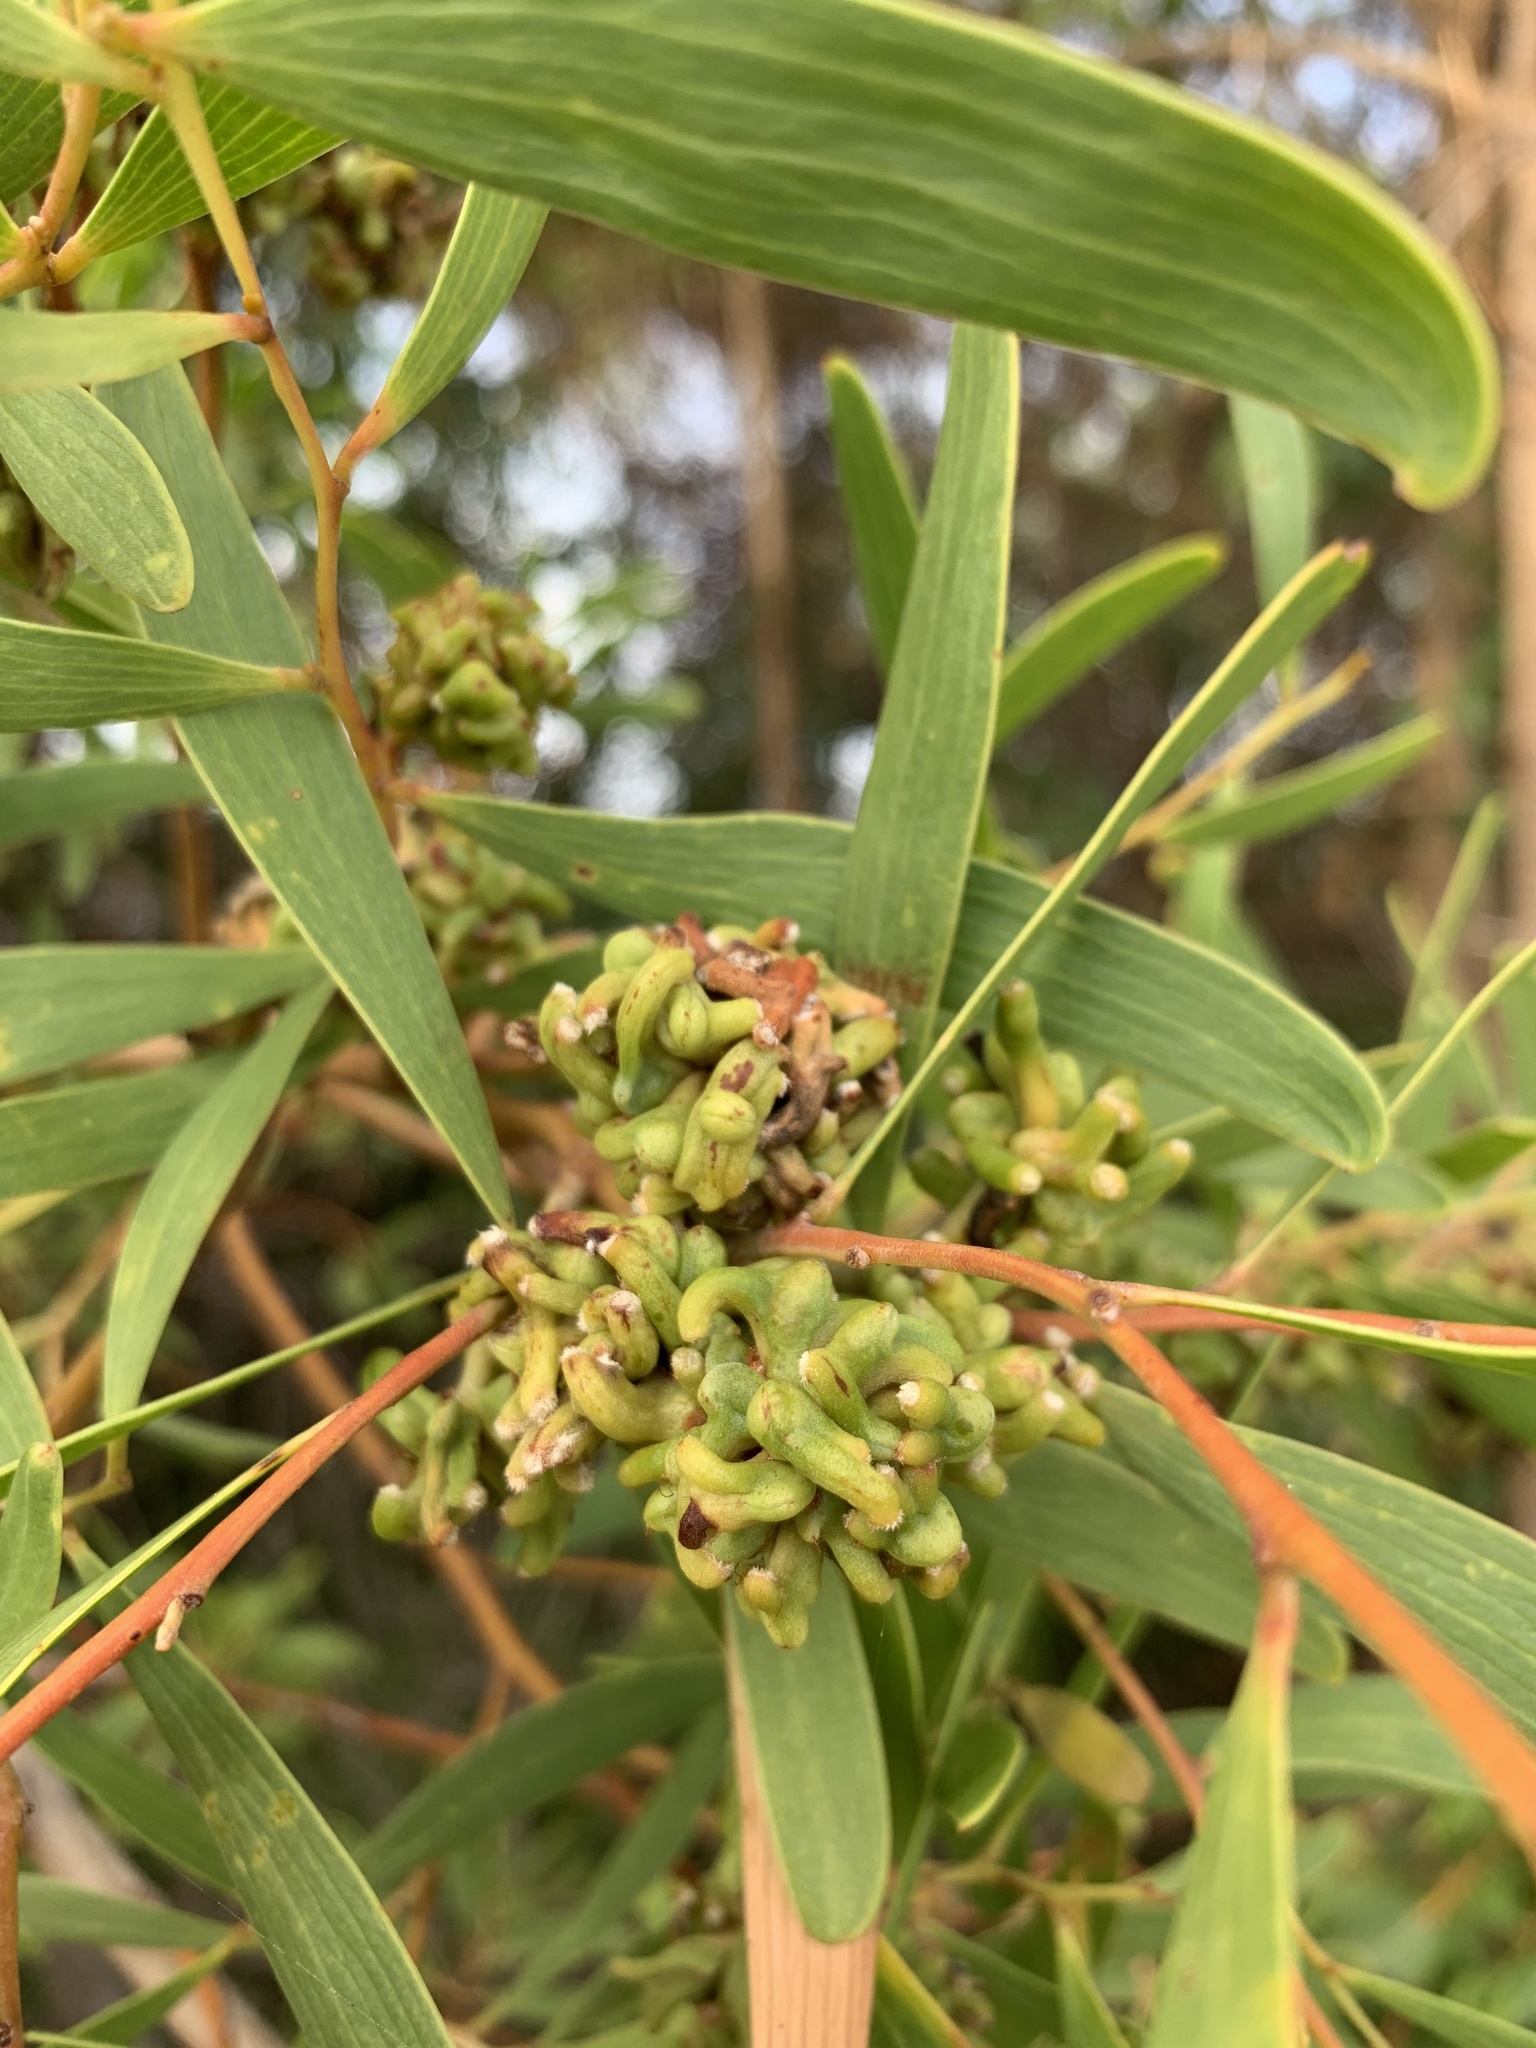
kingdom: Animalia
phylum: Arthropoda
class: Insecta
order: Diptera
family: Cecidomyiidae
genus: Dasineura
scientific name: Dasineura dielsi
